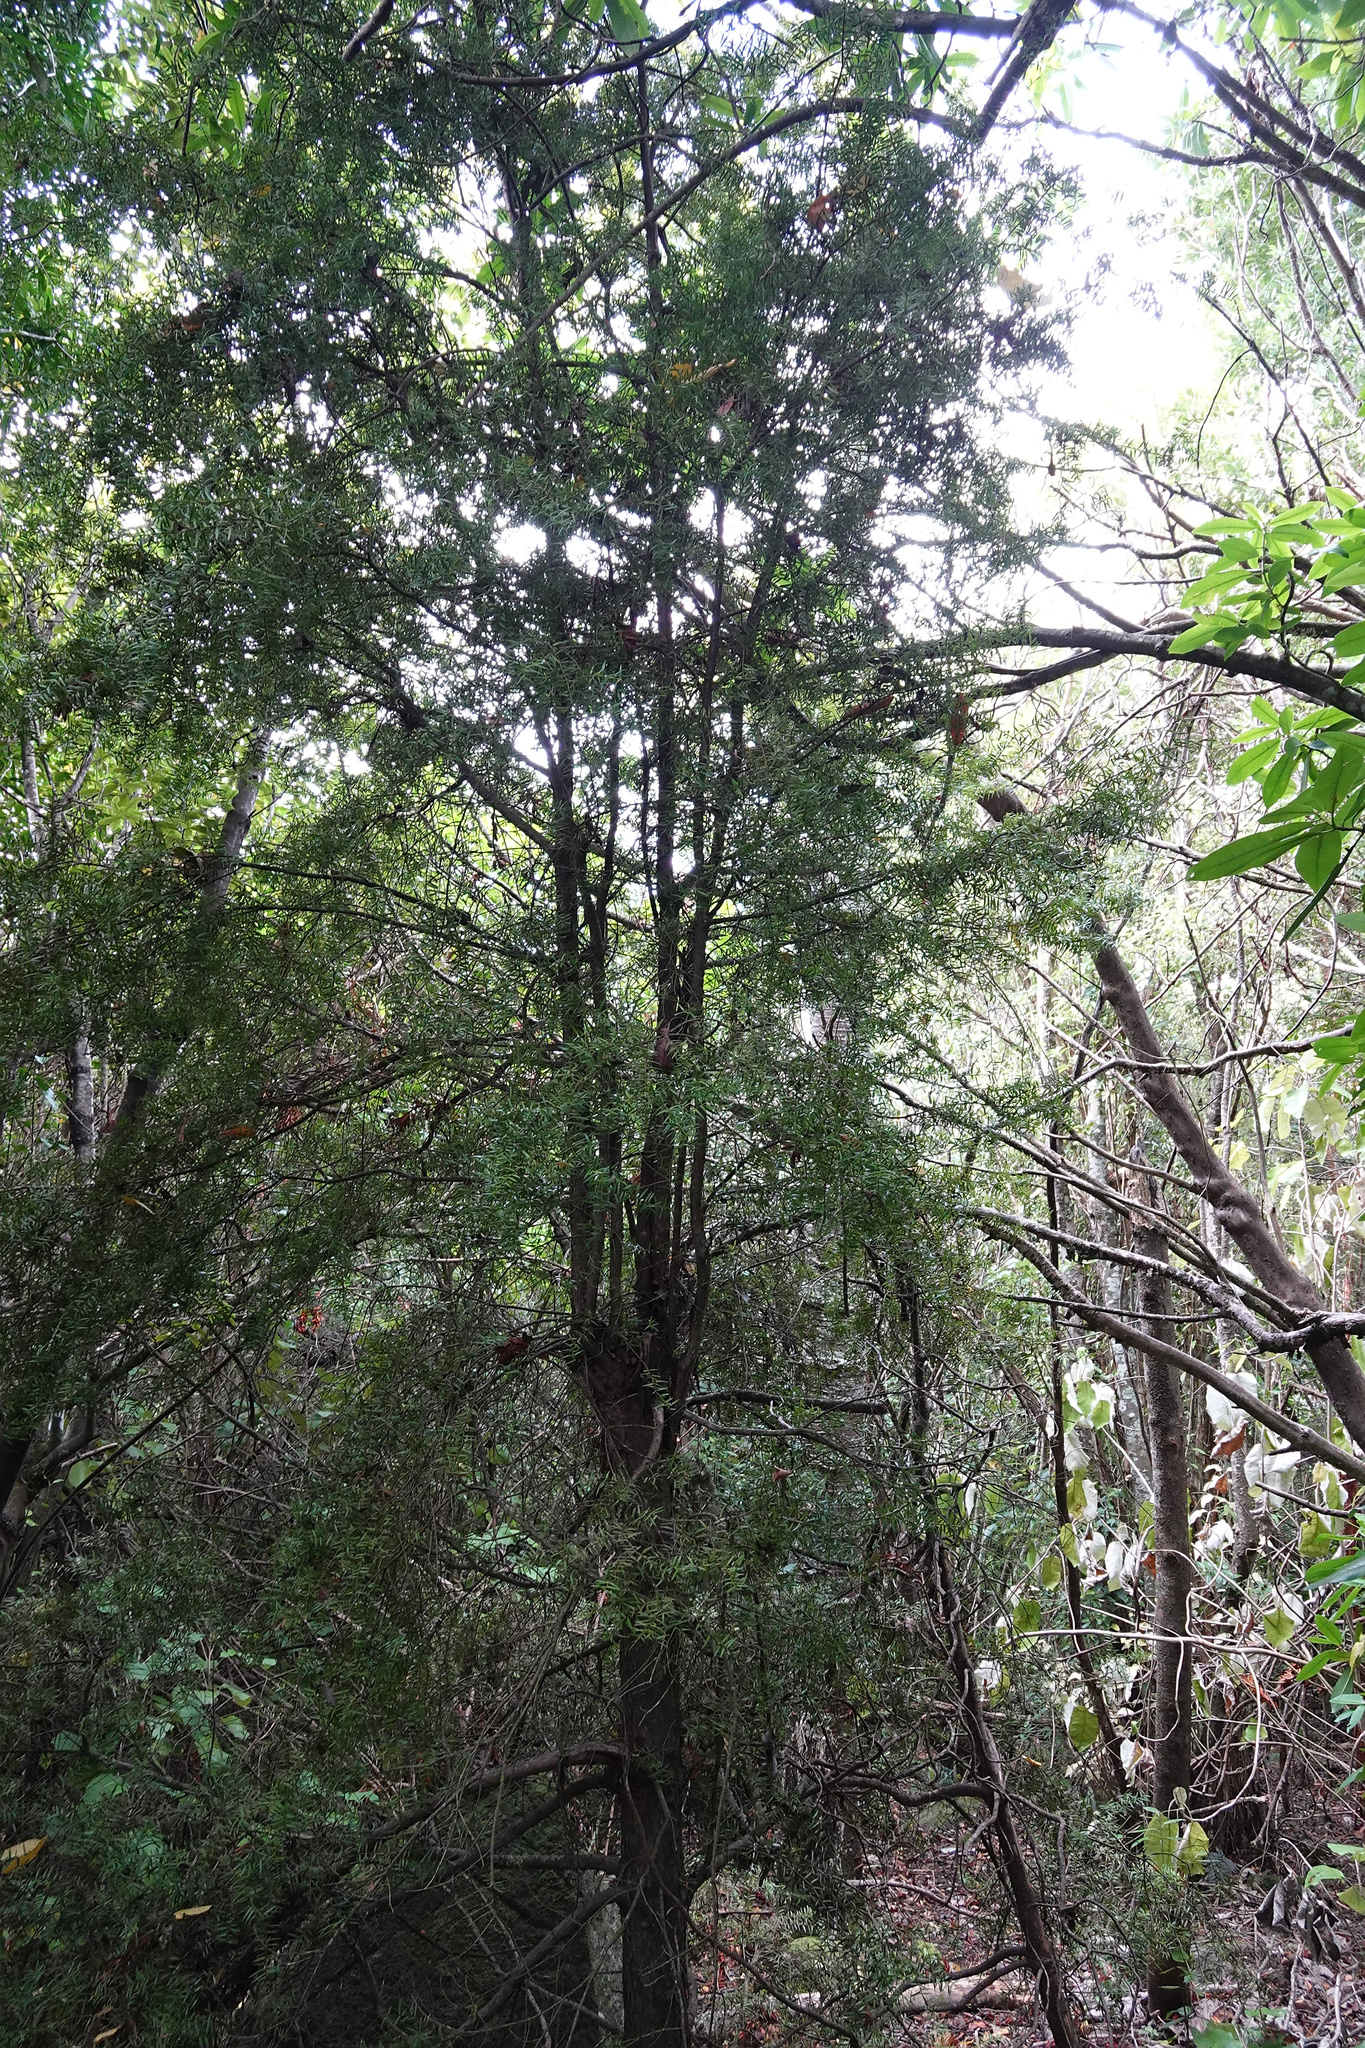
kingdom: Plantae
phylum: Tracheophyta
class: Pinopsida
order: Pinales
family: Podocarpaceae
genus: Podocarpus
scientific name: Podocarpus totara
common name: Totara
